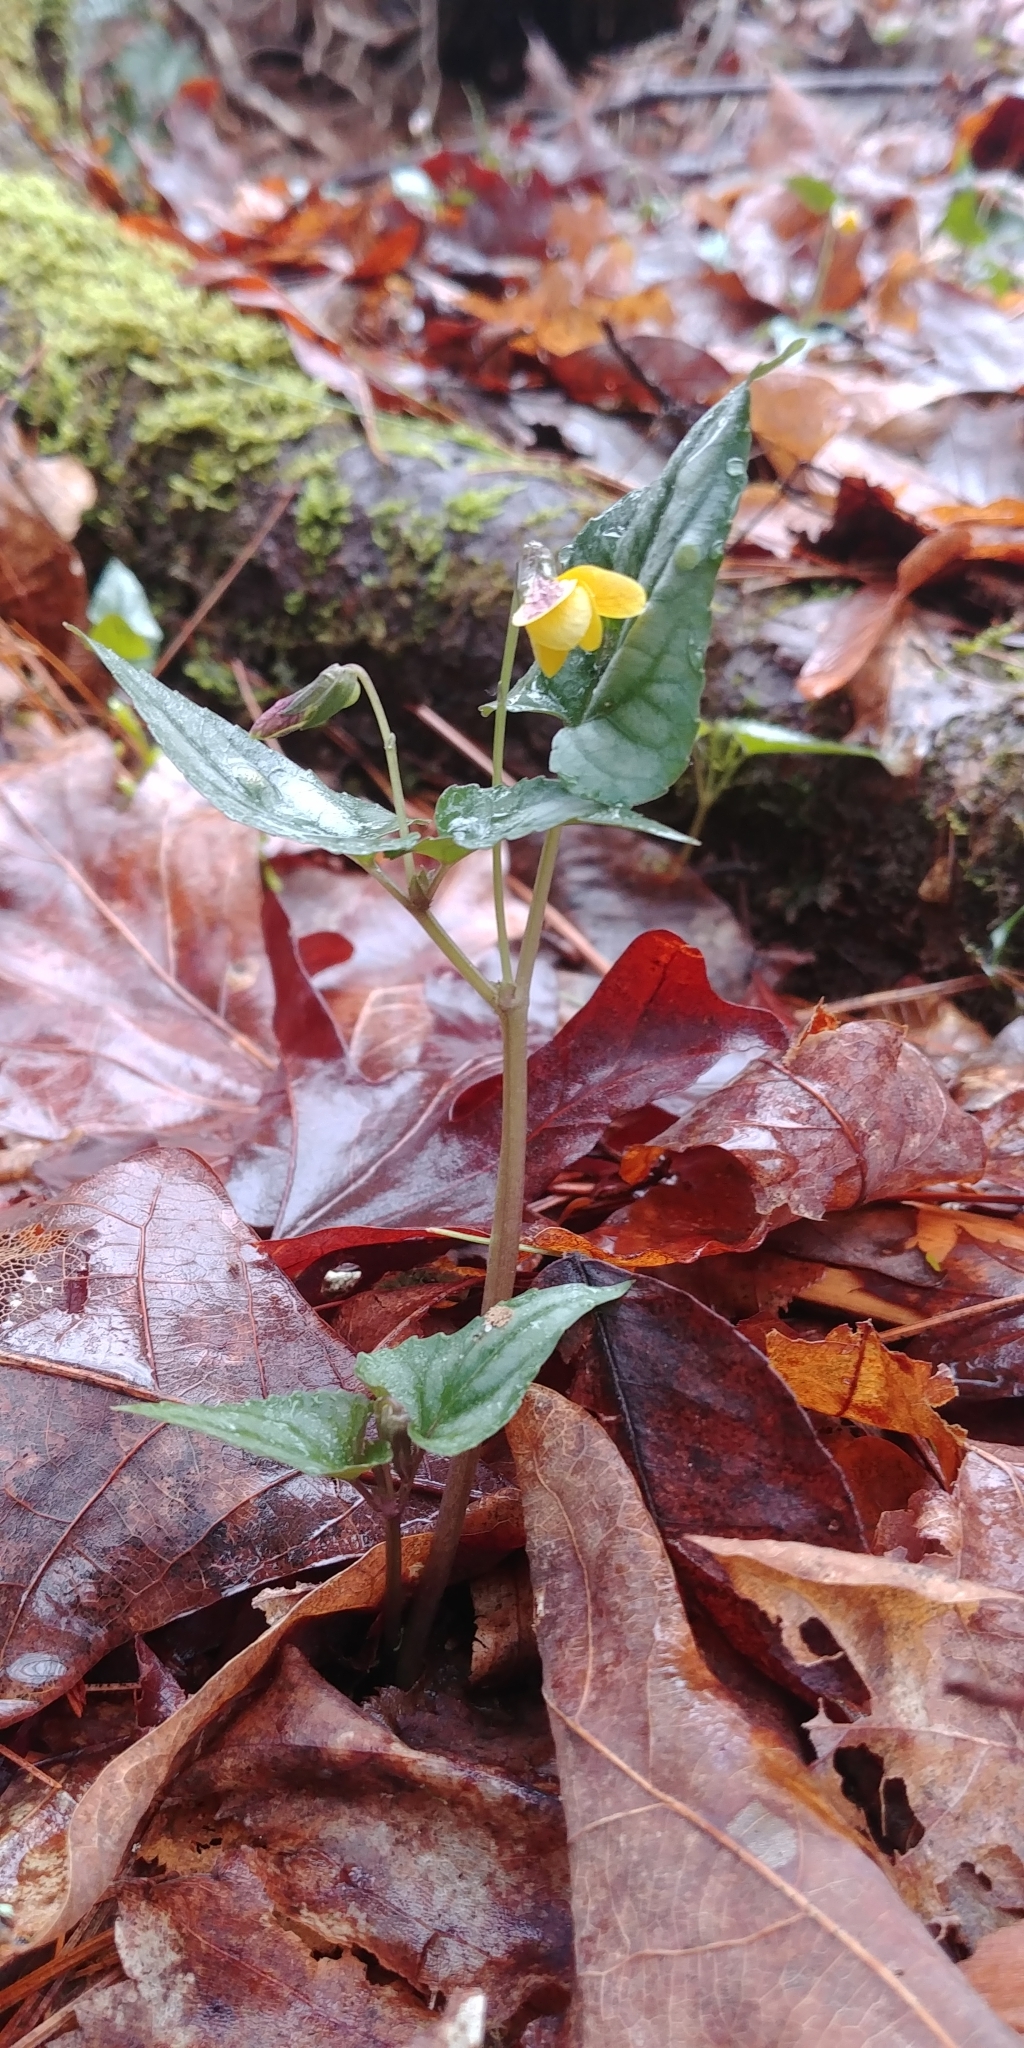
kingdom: Plantae
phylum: Tracheophyta
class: Magnoliopsida
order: Malpighiales
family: Violaceae
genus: Viola
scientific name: Viola hastata
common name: Spear-leaf violet
